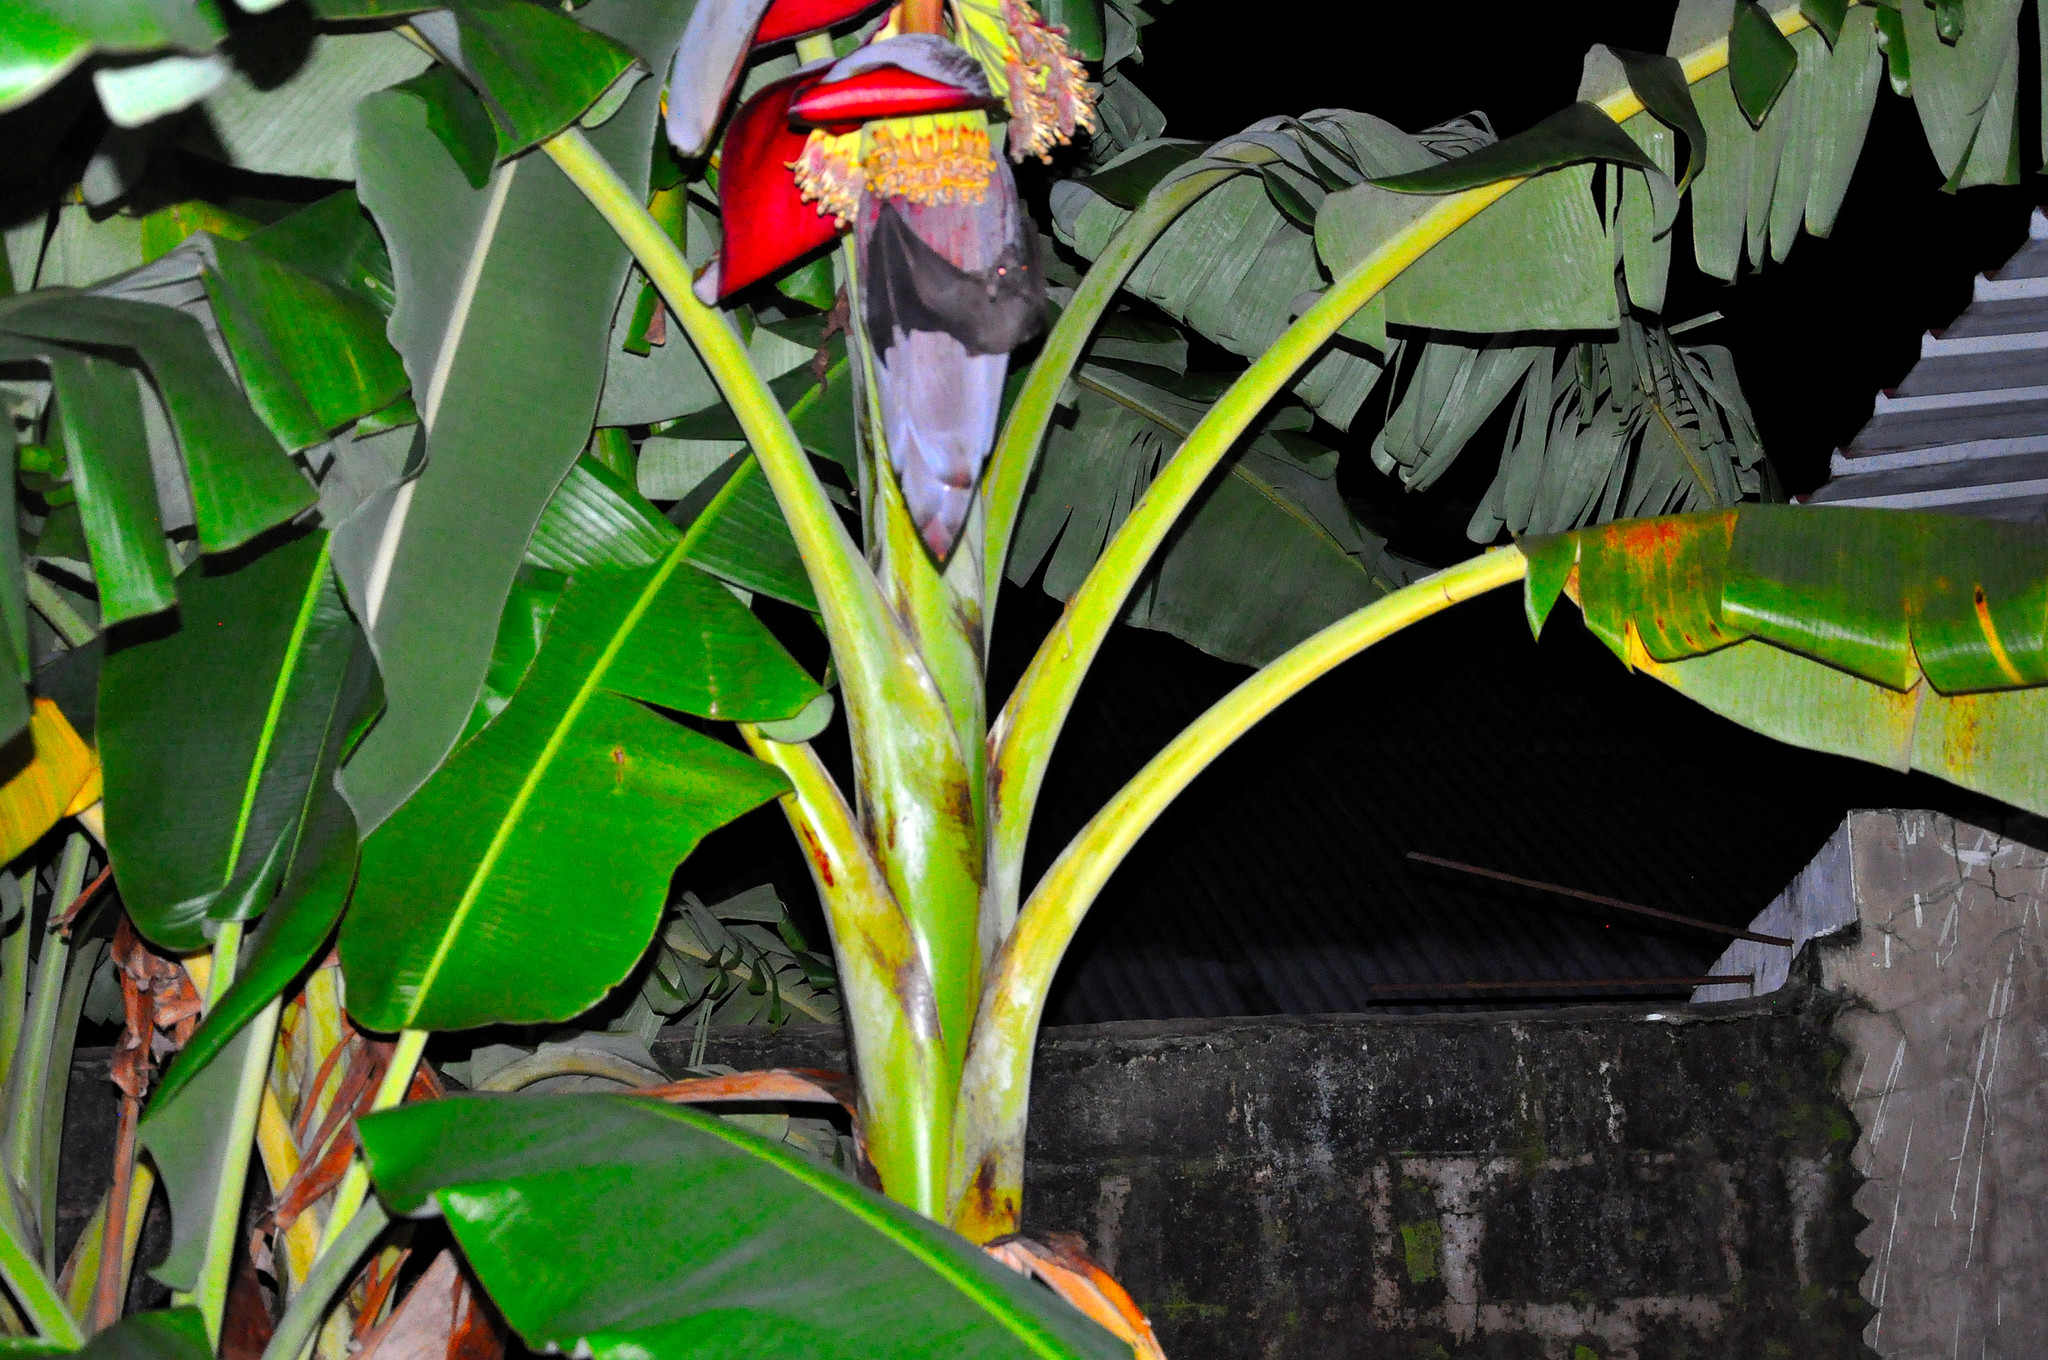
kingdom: Animalia
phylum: Chordata
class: Mammalia
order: Chiroptera
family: Pteropodidae
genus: Rousettus
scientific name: Rousettus aegyptiacus
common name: Egyptian rousette
